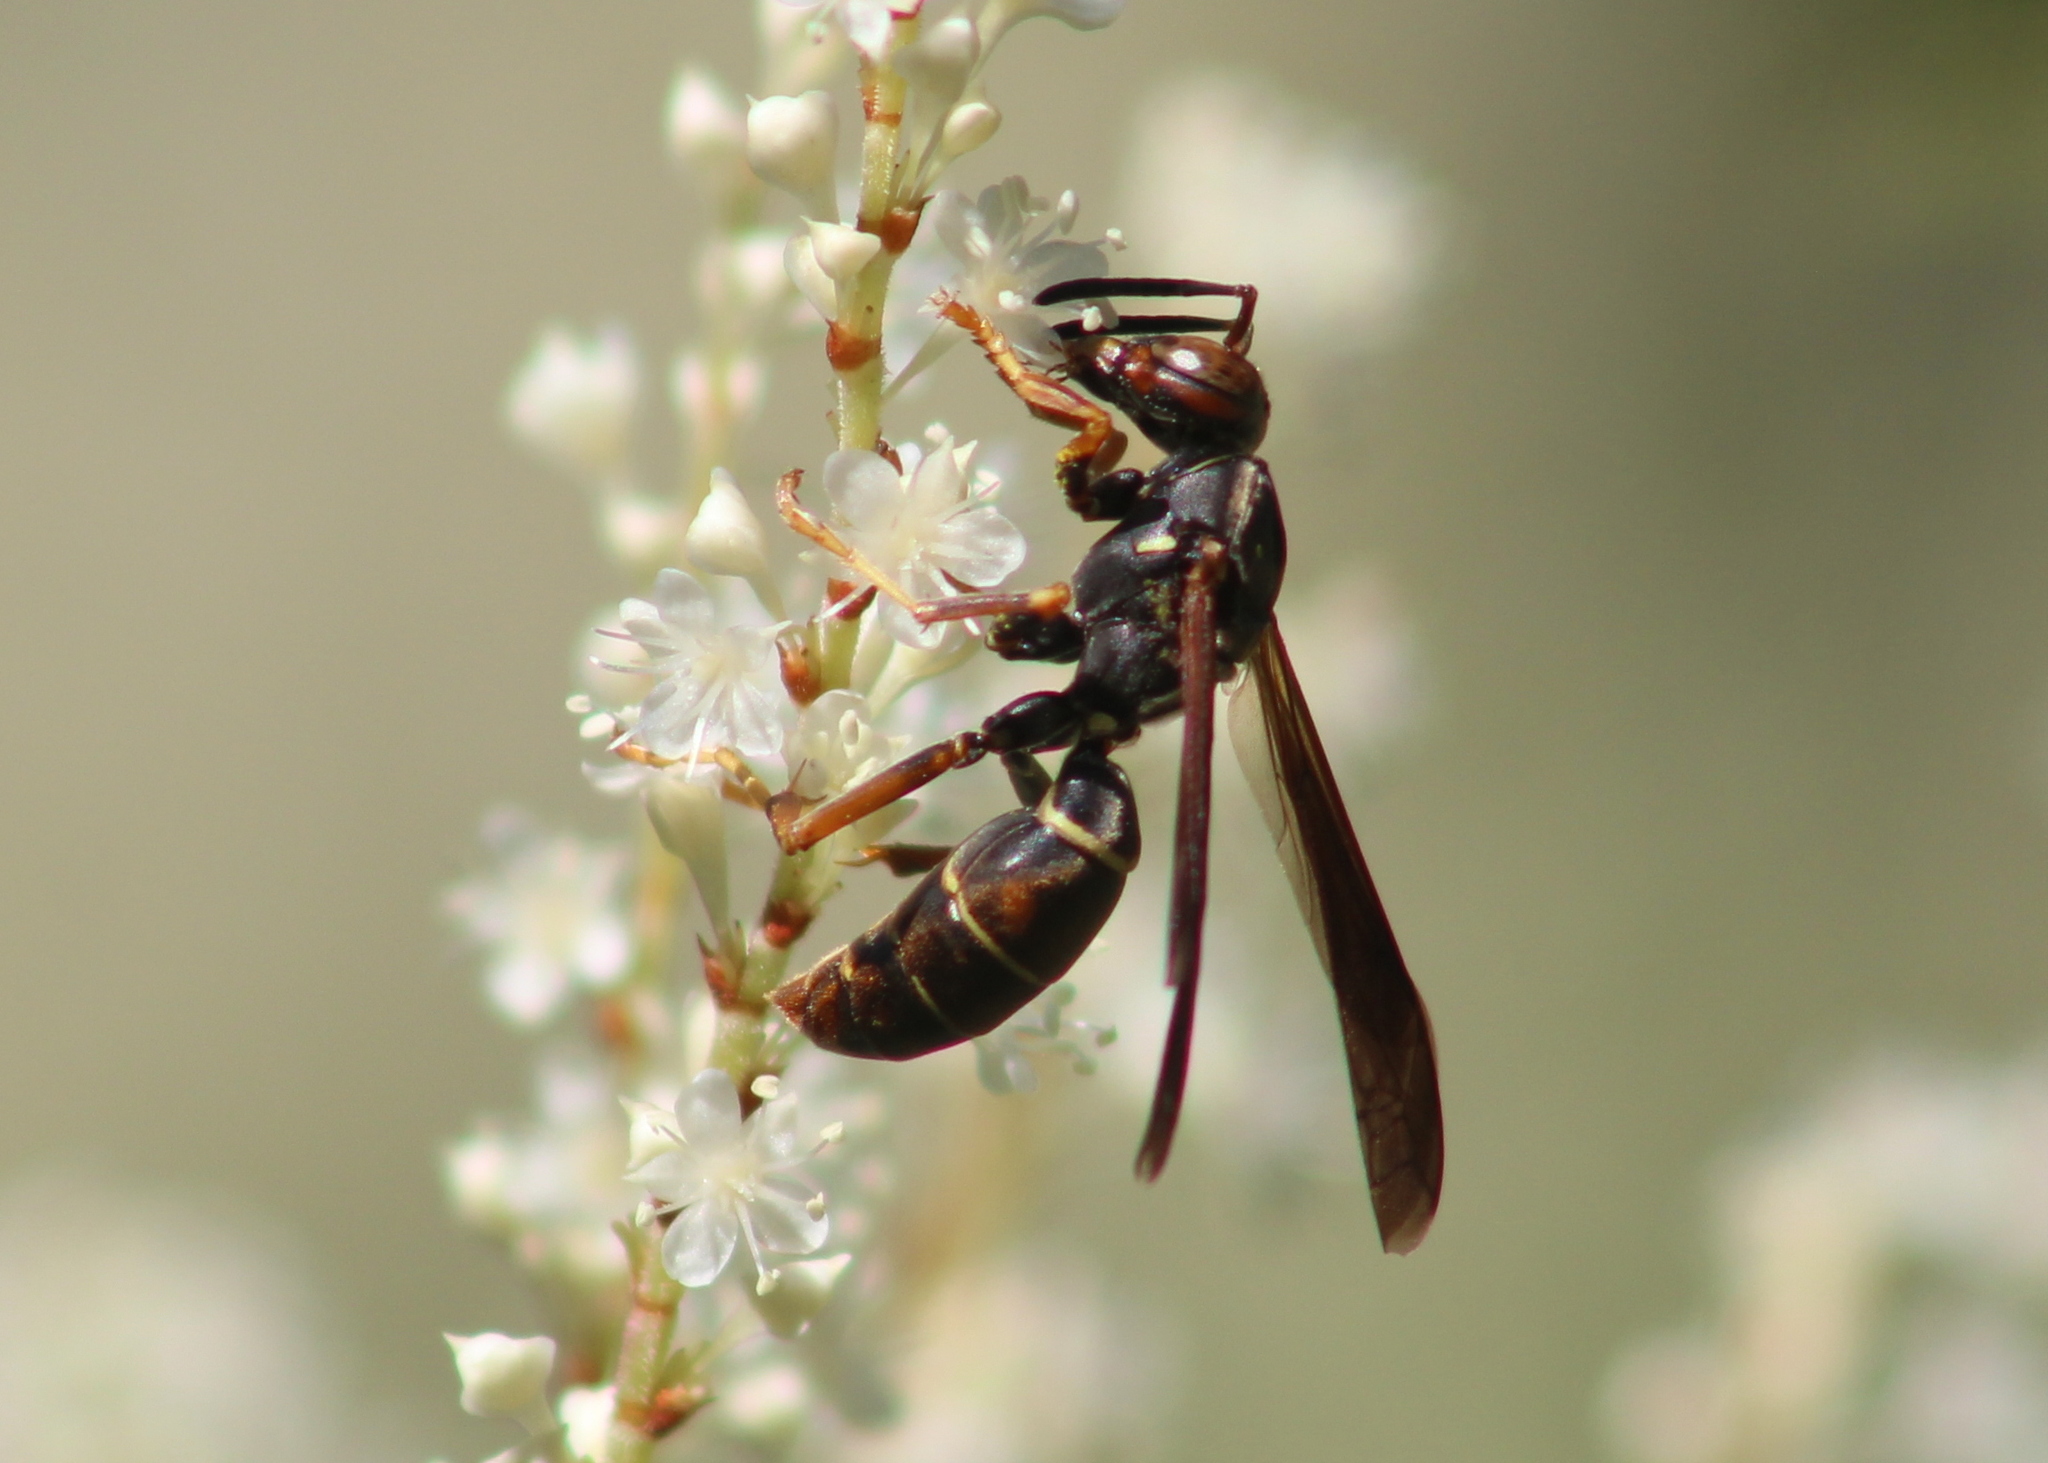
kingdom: Animalia
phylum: Arthropoda
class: Insecta
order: Hymenoptera
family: Eumenidae
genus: Polistes
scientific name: Polistes fuscatus
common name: Dark paper wasp
